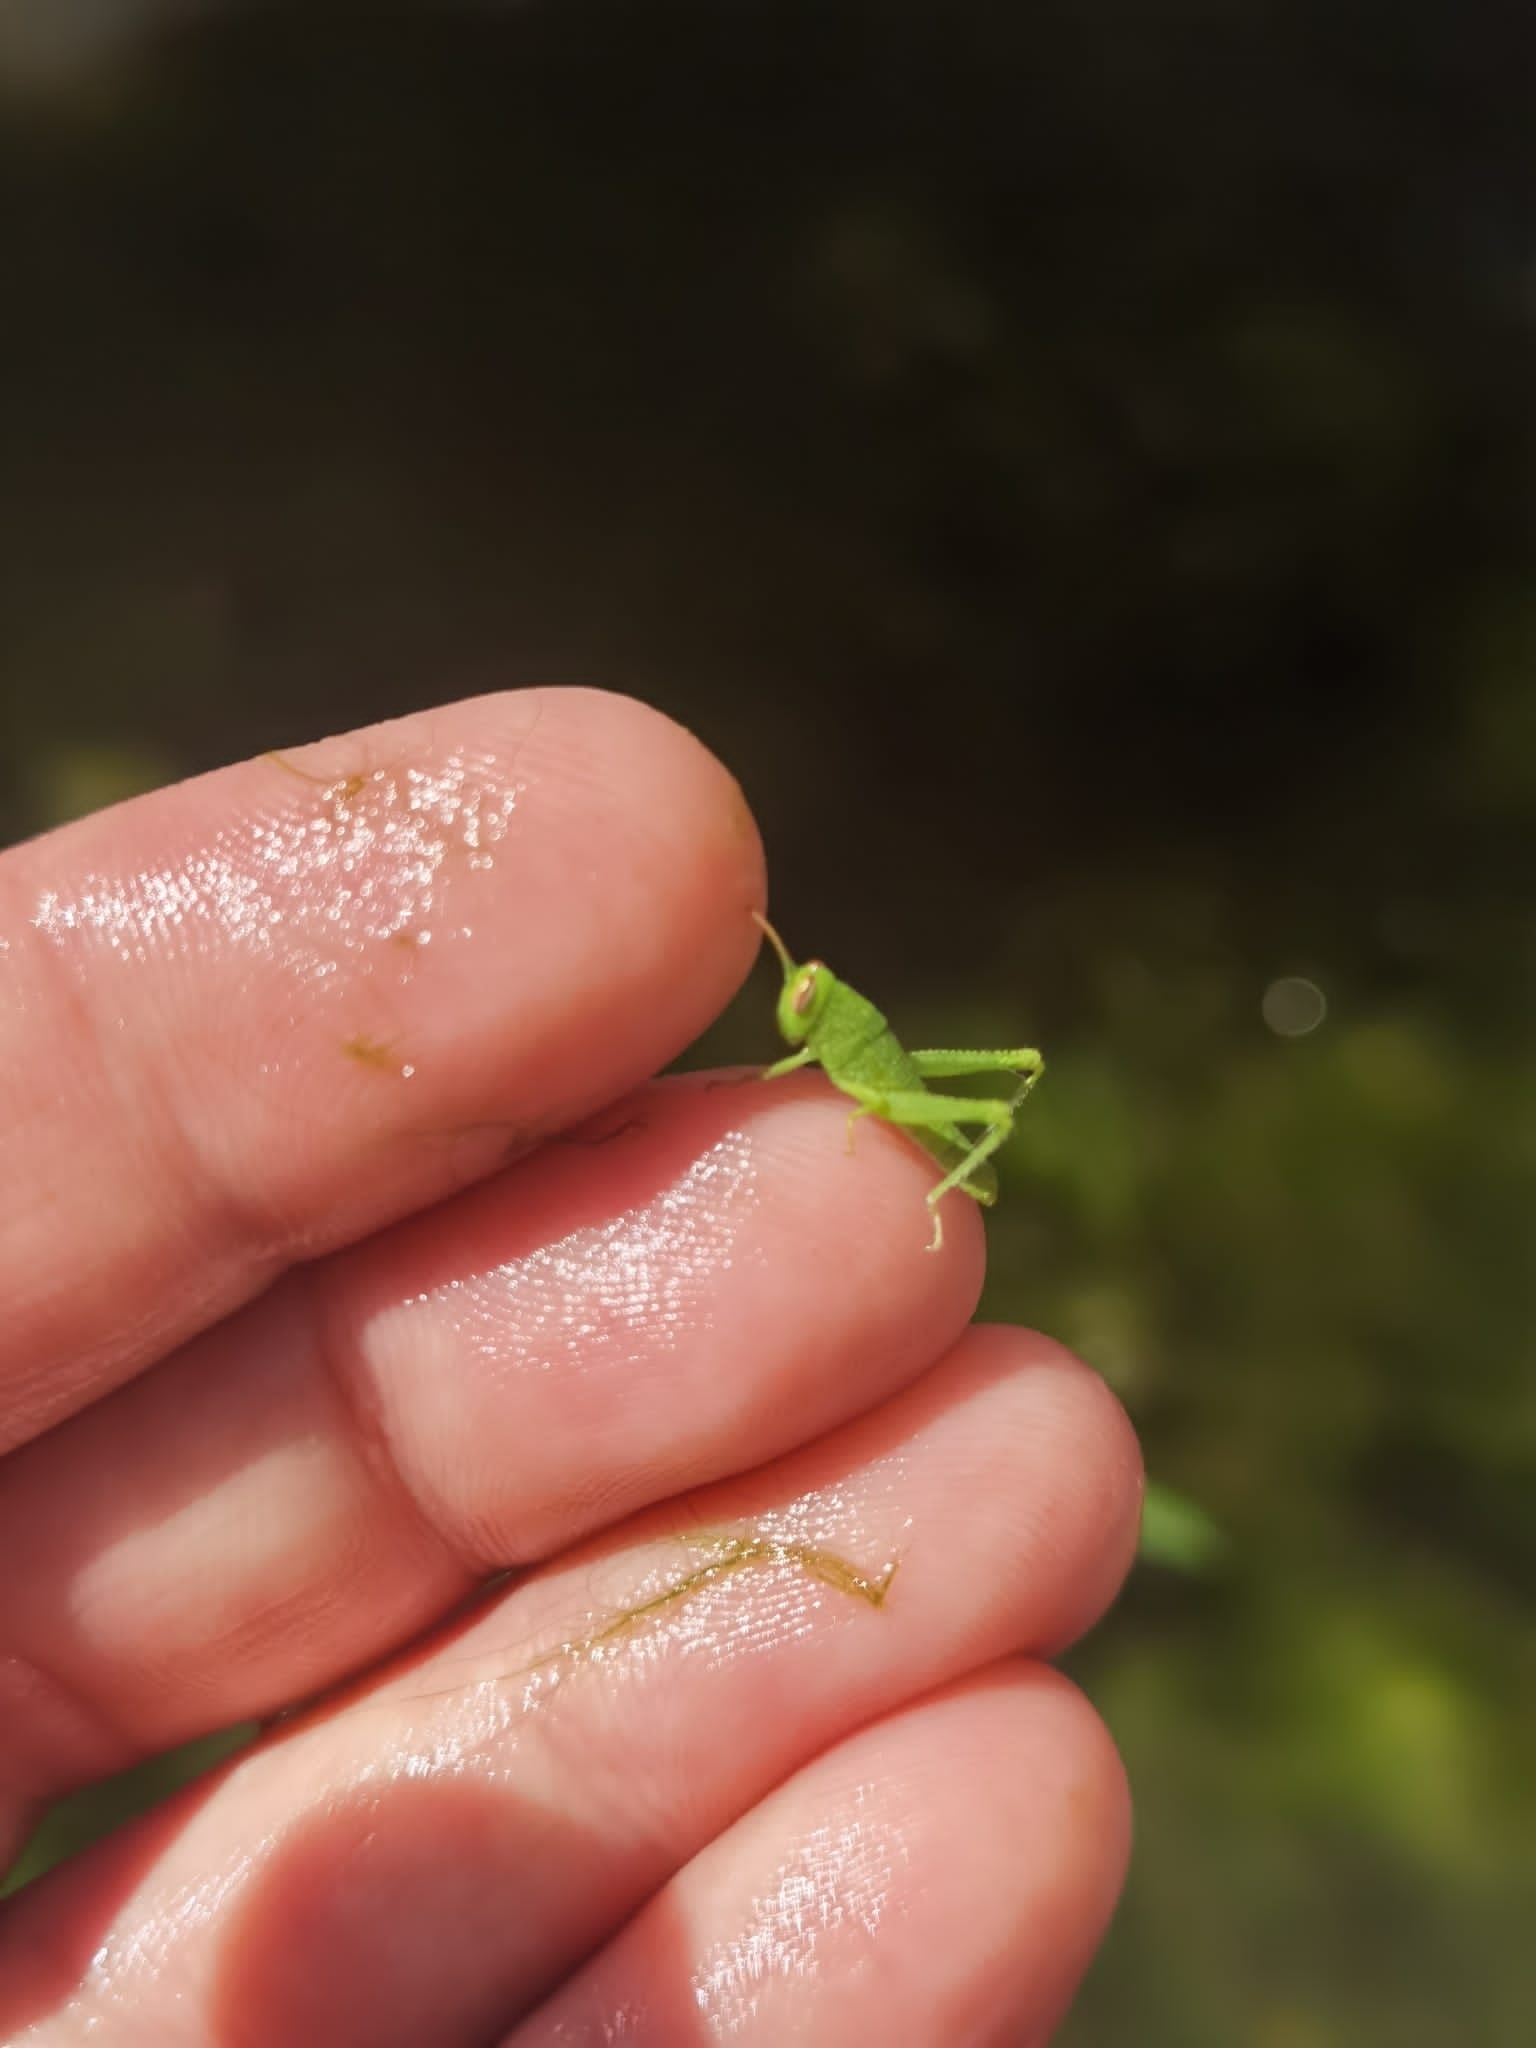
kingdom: Animalia
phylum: Arthropoda
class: Insecta
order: Orthoptera
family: Acrididae
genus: Anacridium
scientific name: Anacridium aegyptium
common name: Egyptian grasshopper
